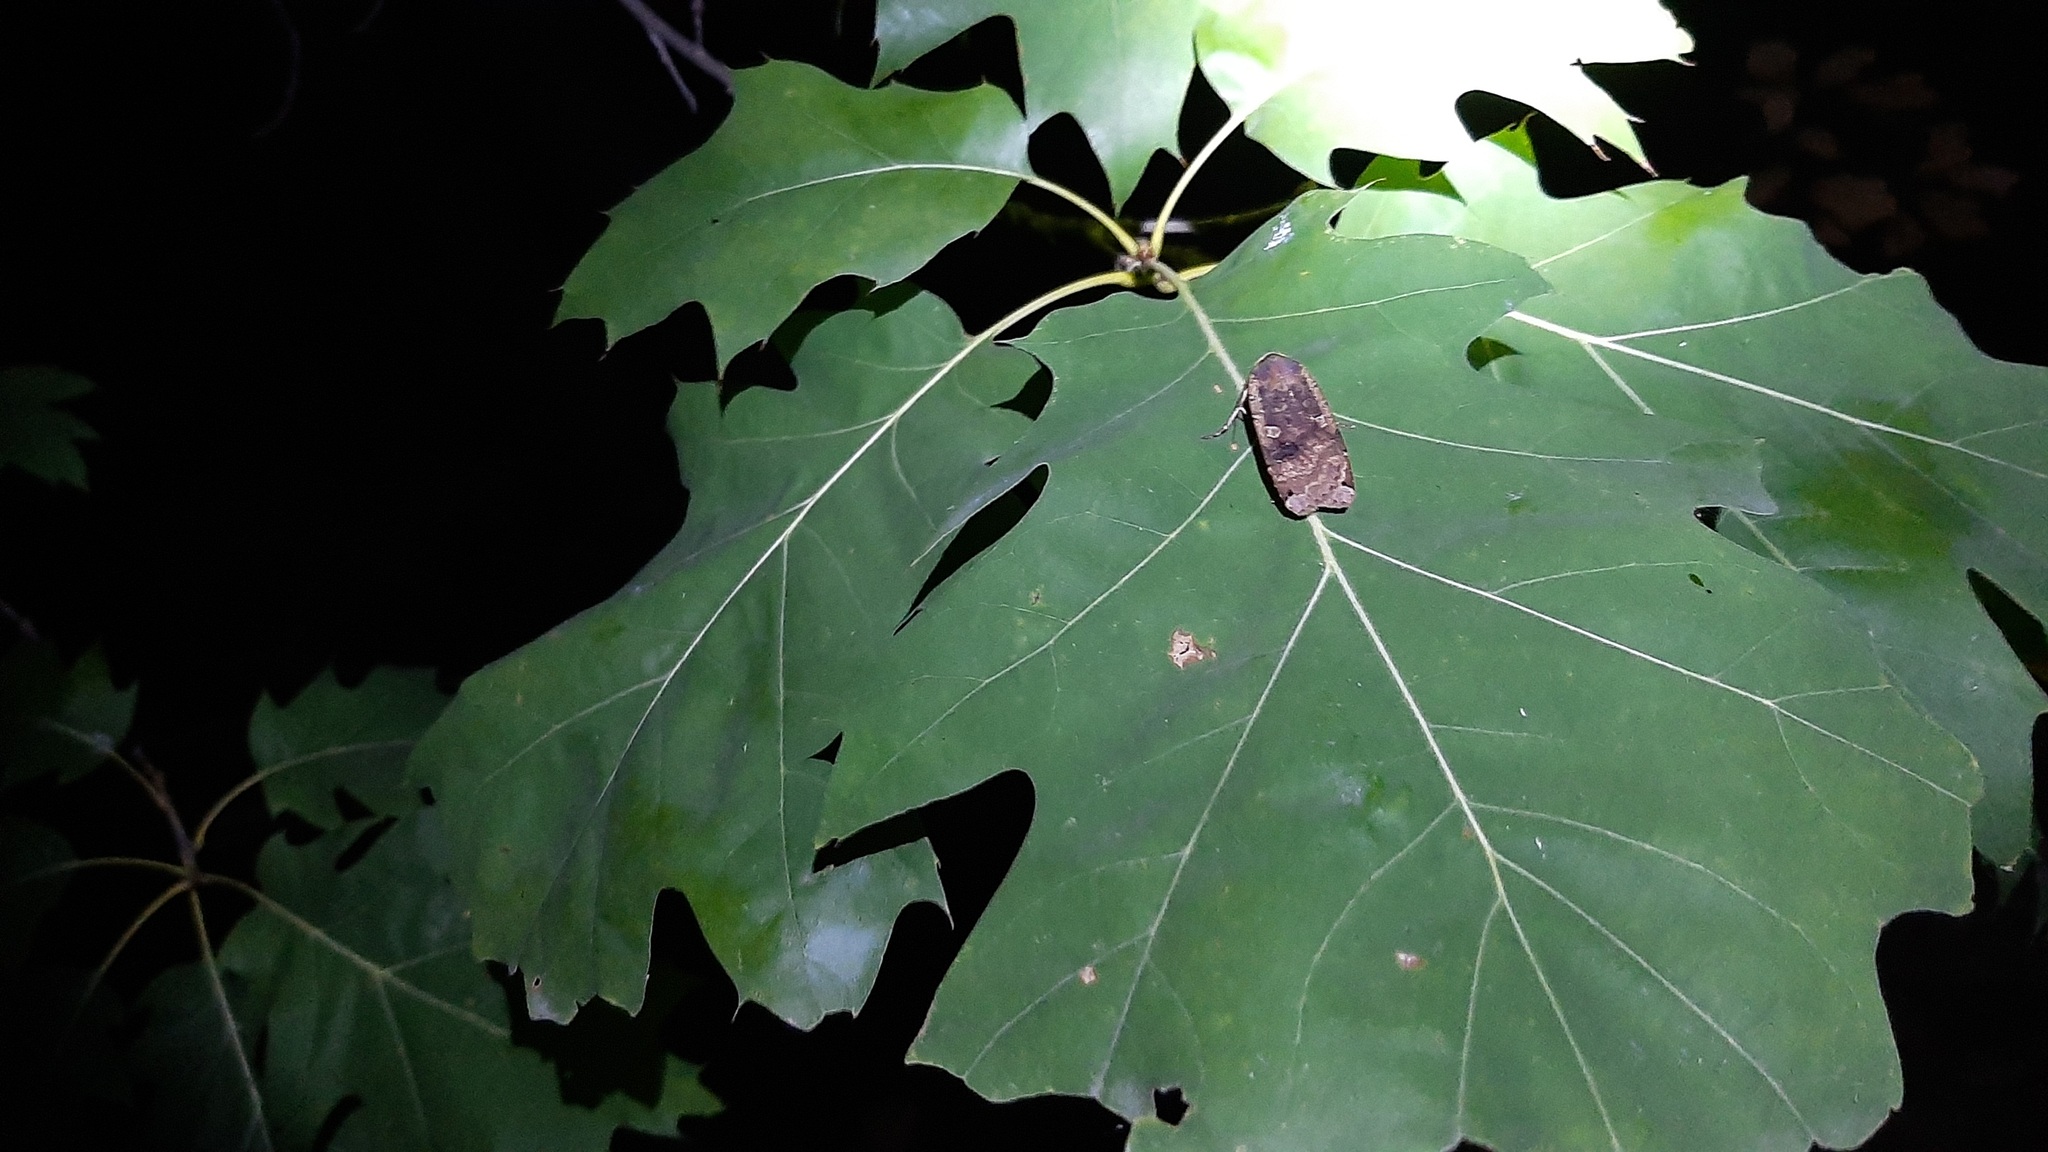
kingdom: Animalia
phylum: Arthropoda
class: Insecta
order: Lepidoptera
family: Noctuidae
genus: Noctua
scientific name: Noctua pronuba
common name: Large yellow underwing
